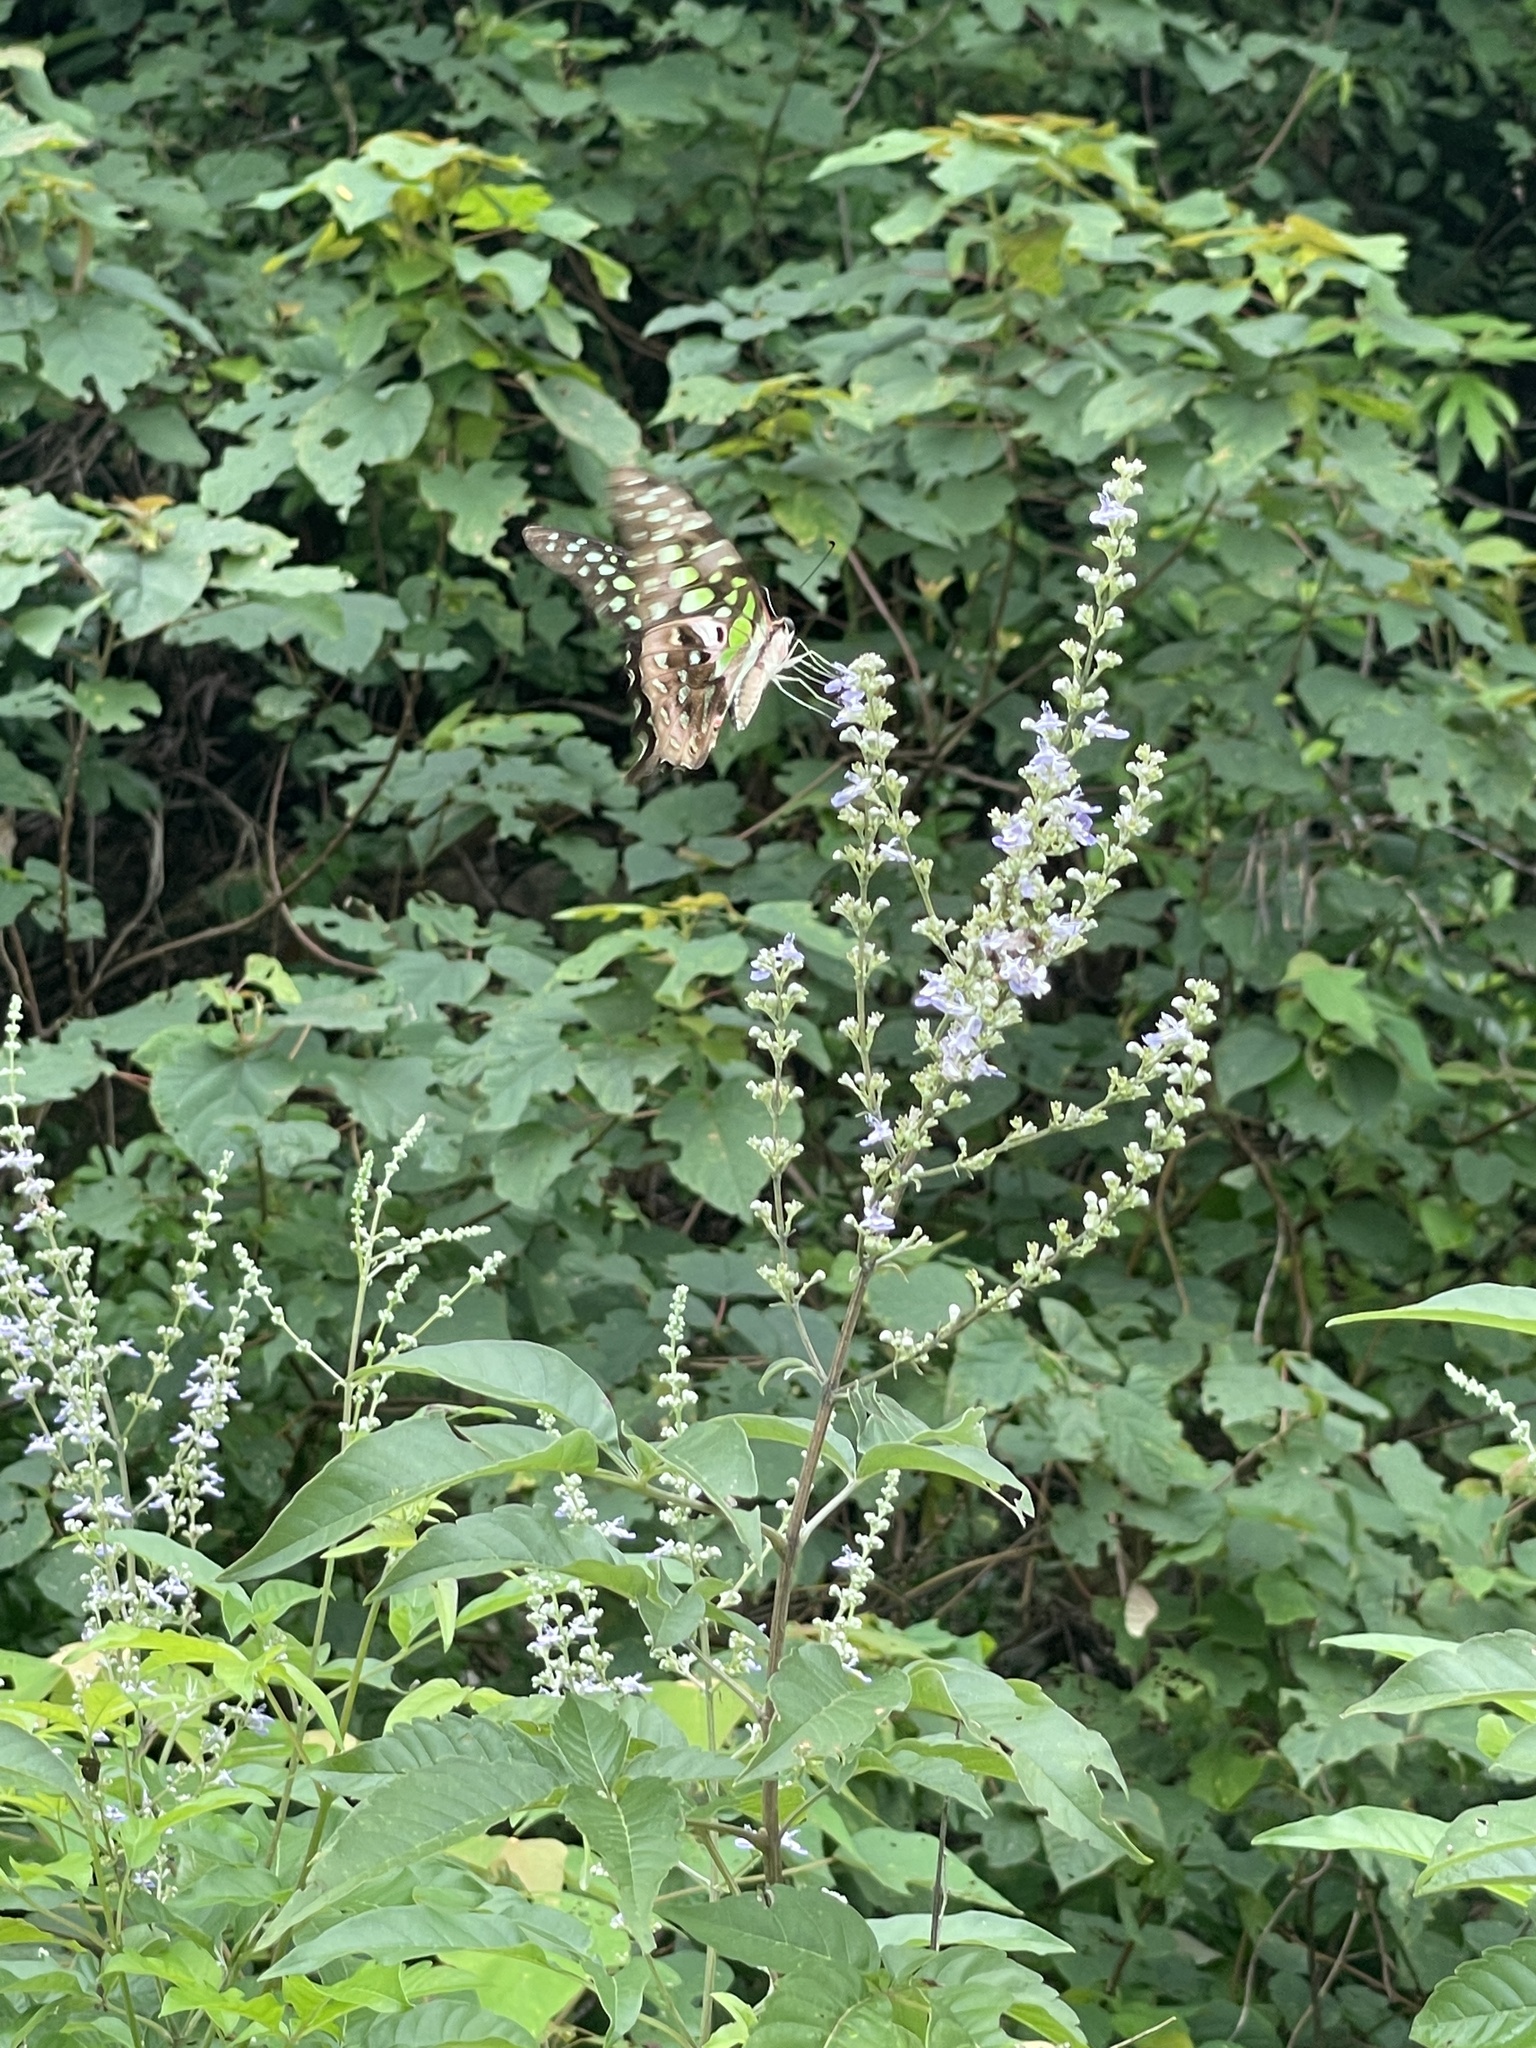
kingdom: Animalia
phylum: Arthropoda
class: Insecta
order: Lepidoptera
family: Papilionidae
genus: Graphium
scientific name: Graphium agamemnon
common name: Tailed jay
